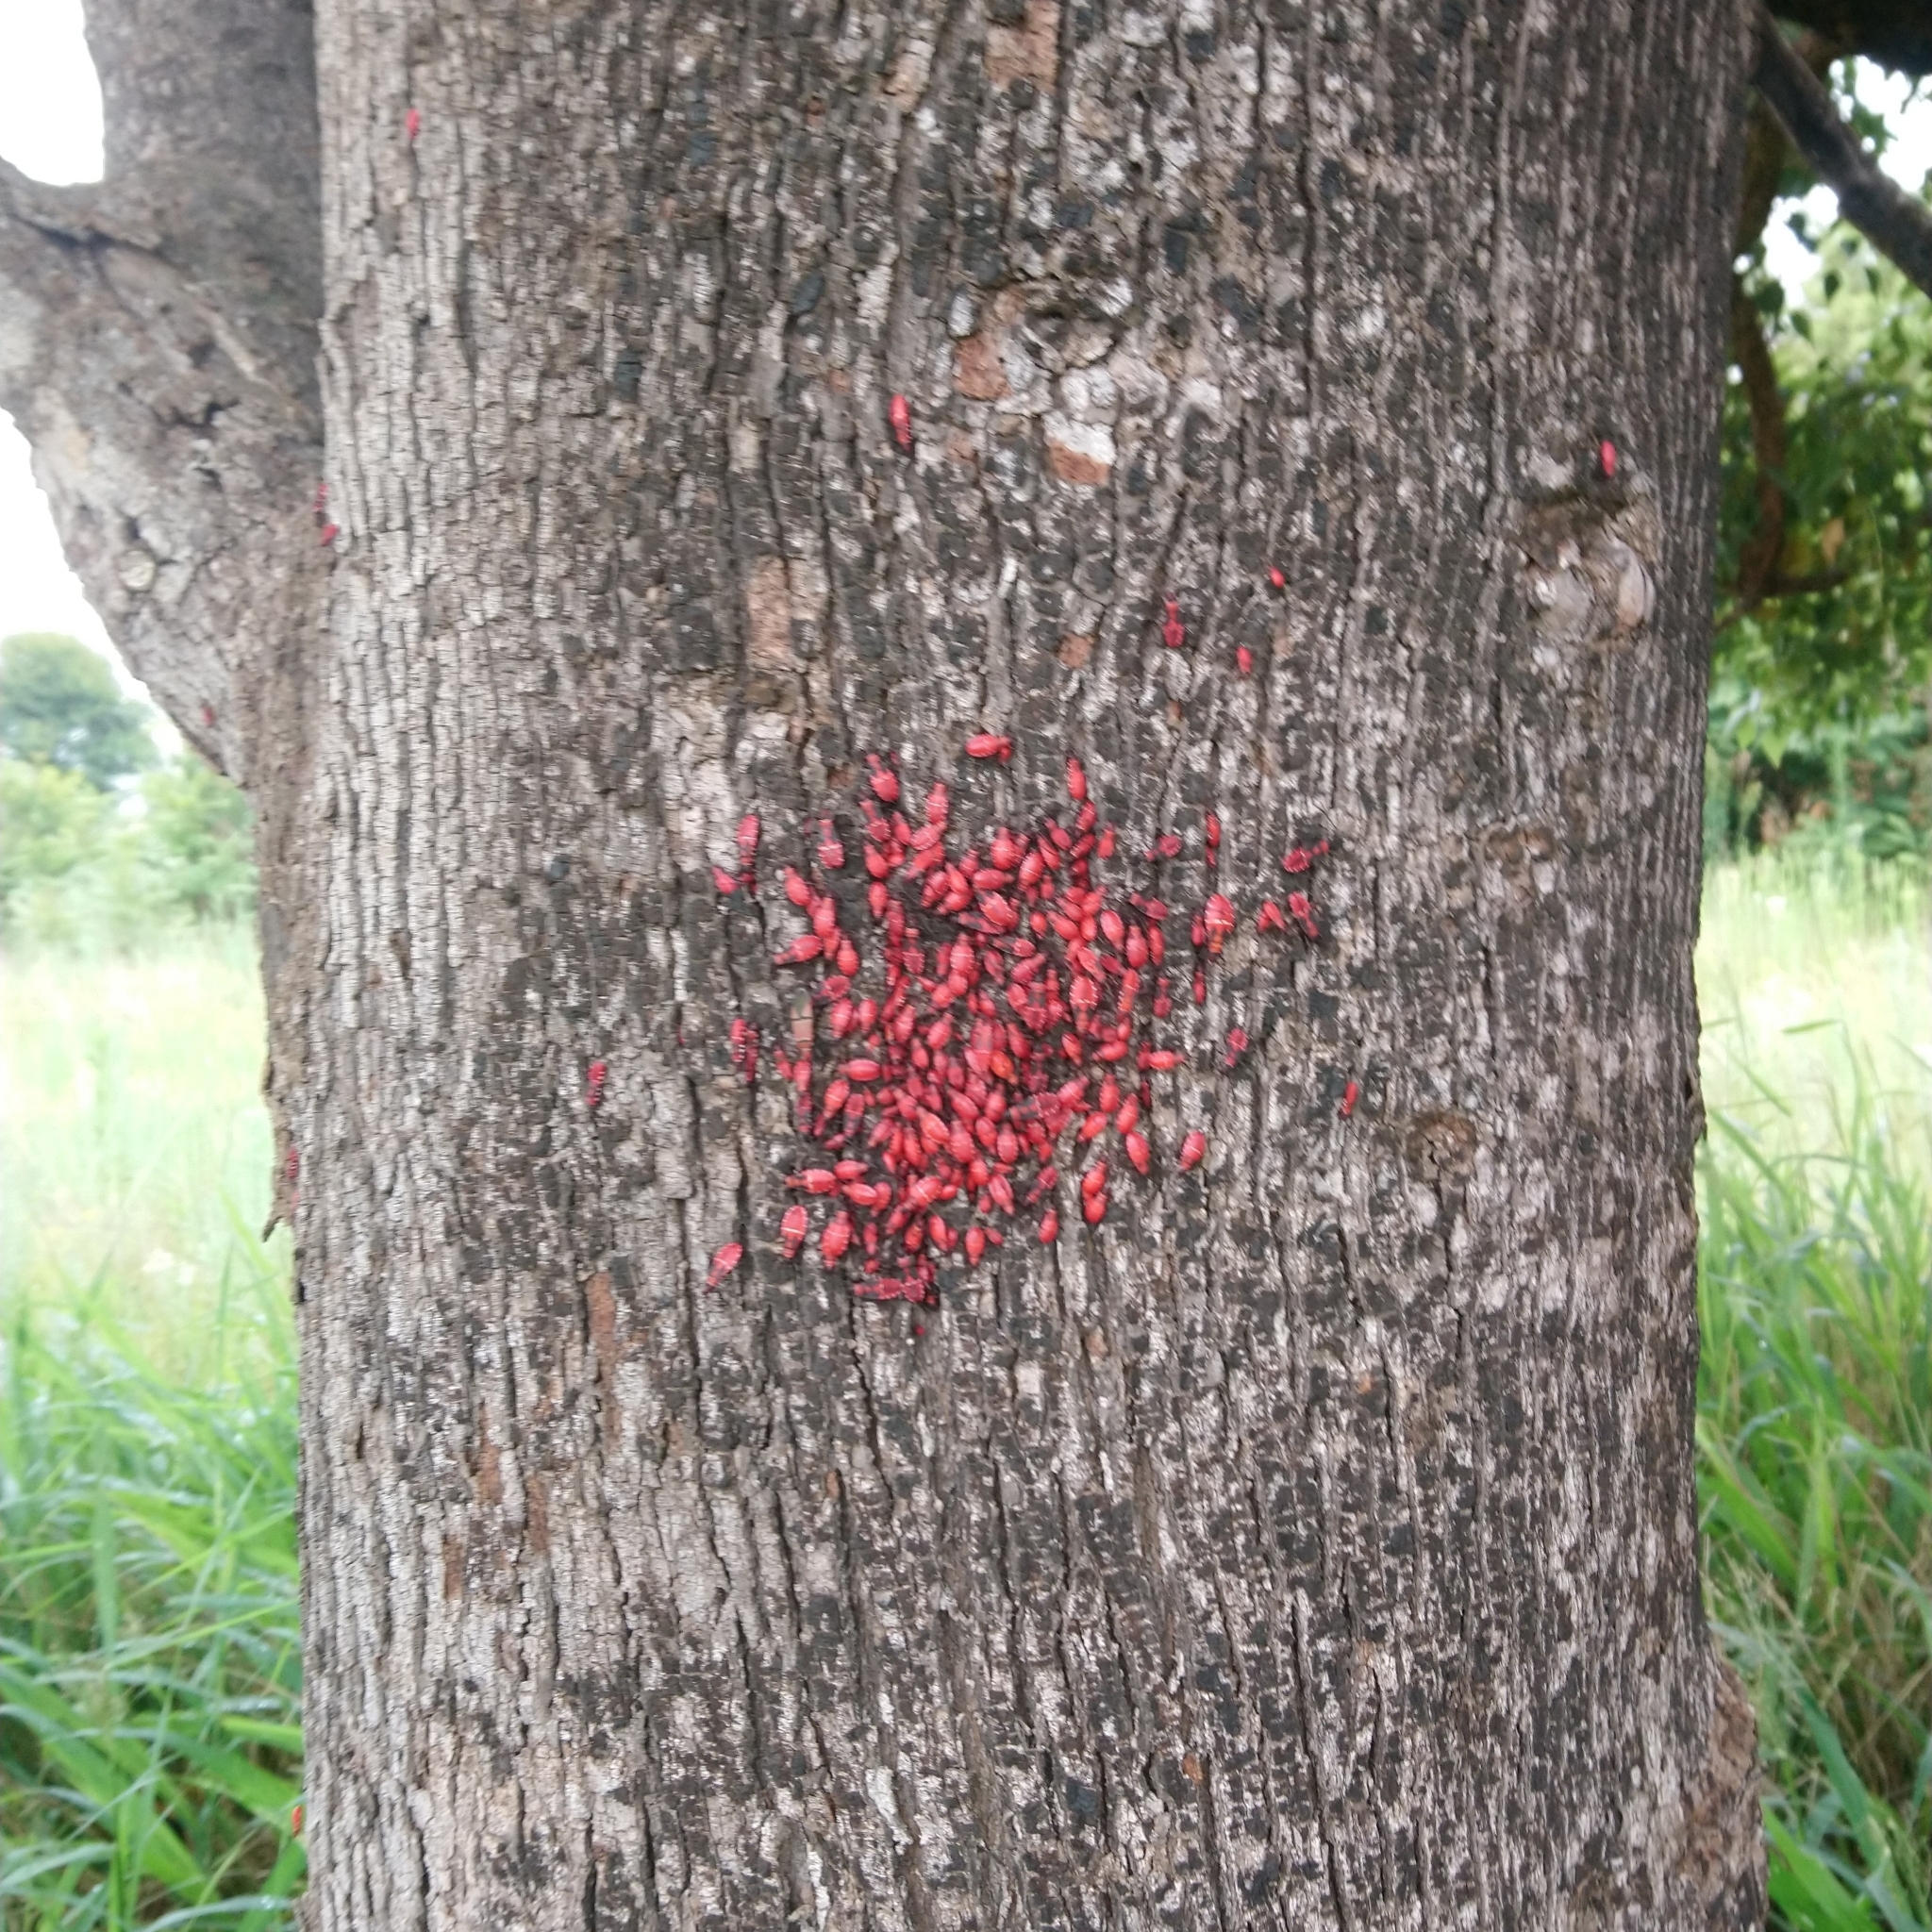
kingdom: Animalia
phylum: Arthropoda
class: Insecta
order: Hemiptera
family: Pyrrhocoridae
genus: Dysdercus
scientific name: Dysdercus fasciatus
